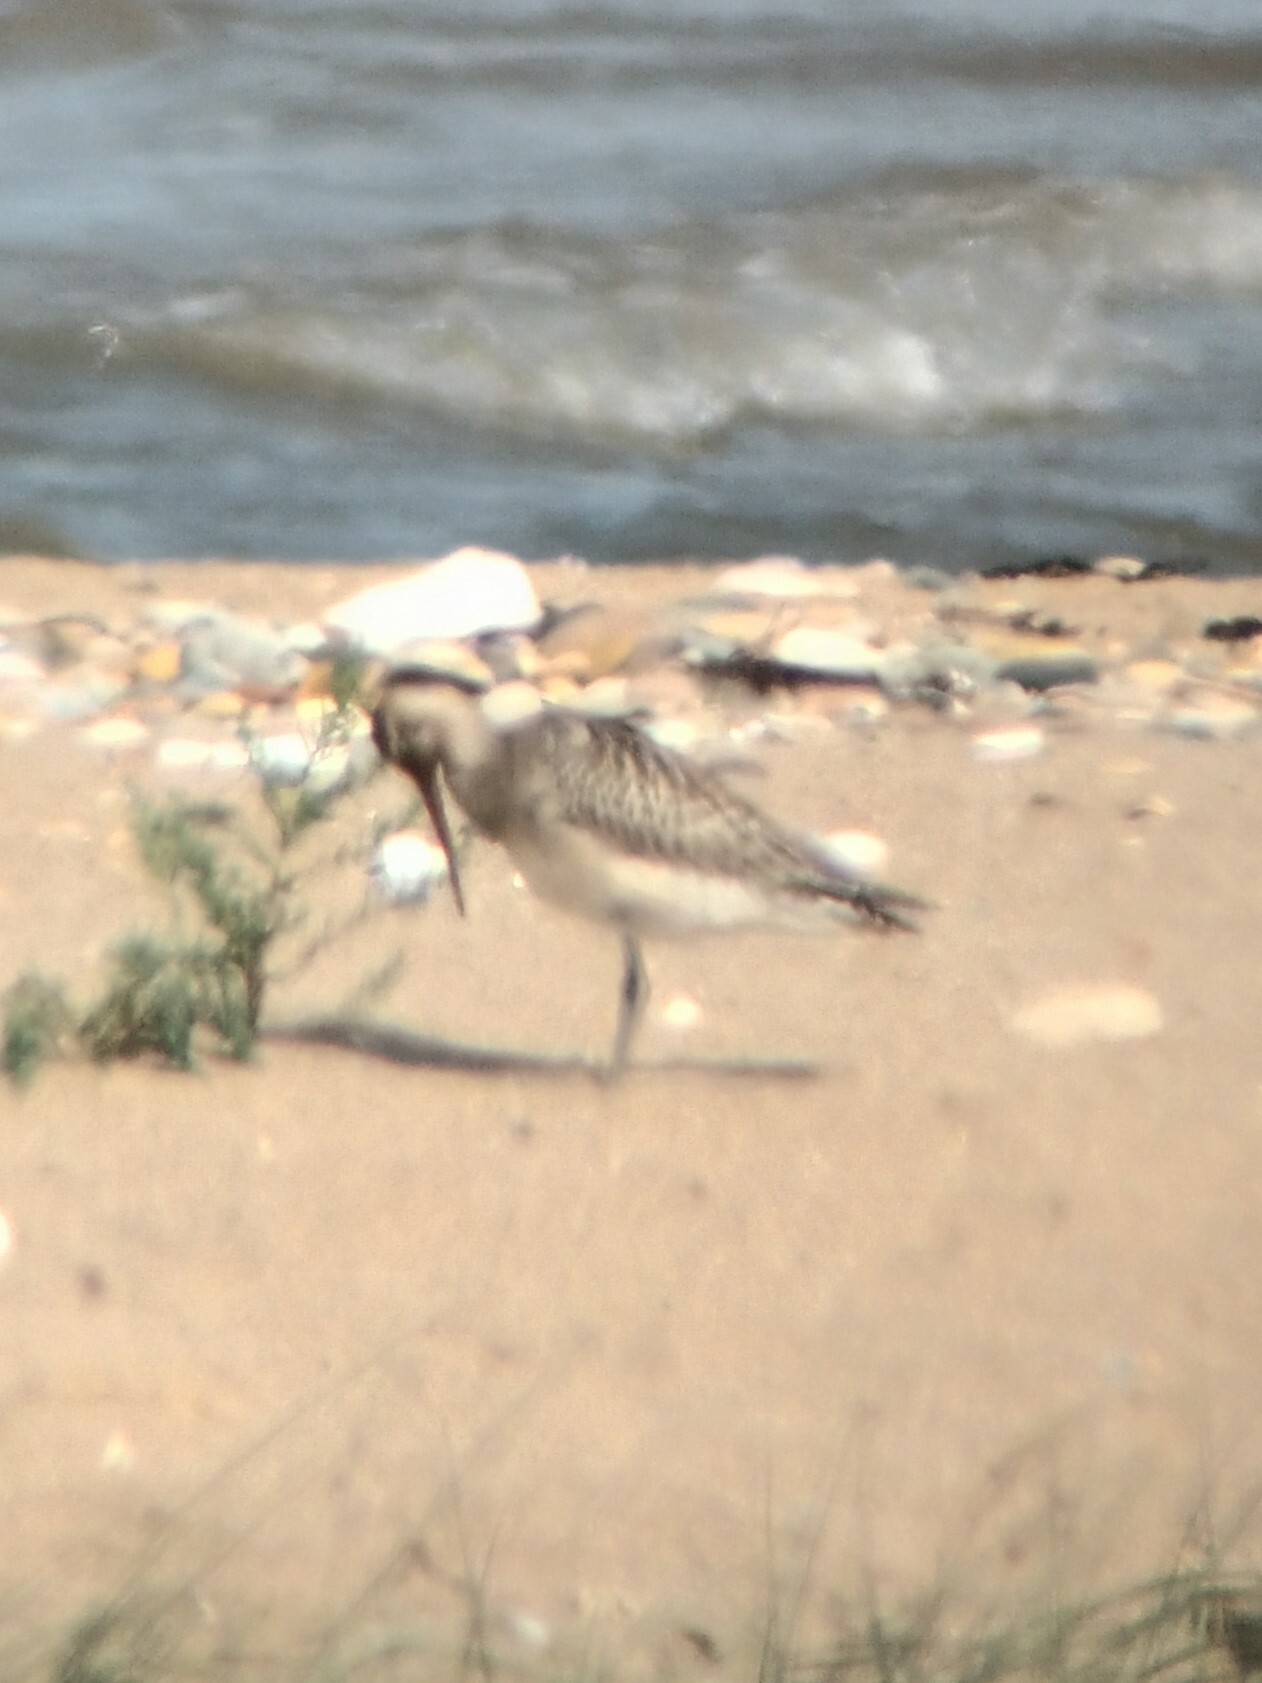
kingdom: Animalia
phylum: Chordata
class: Aves
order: Charadriiformes
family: Scolopacidae
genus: Limosa
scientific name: Limosa lapponica
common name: Bar-tailed godwit
